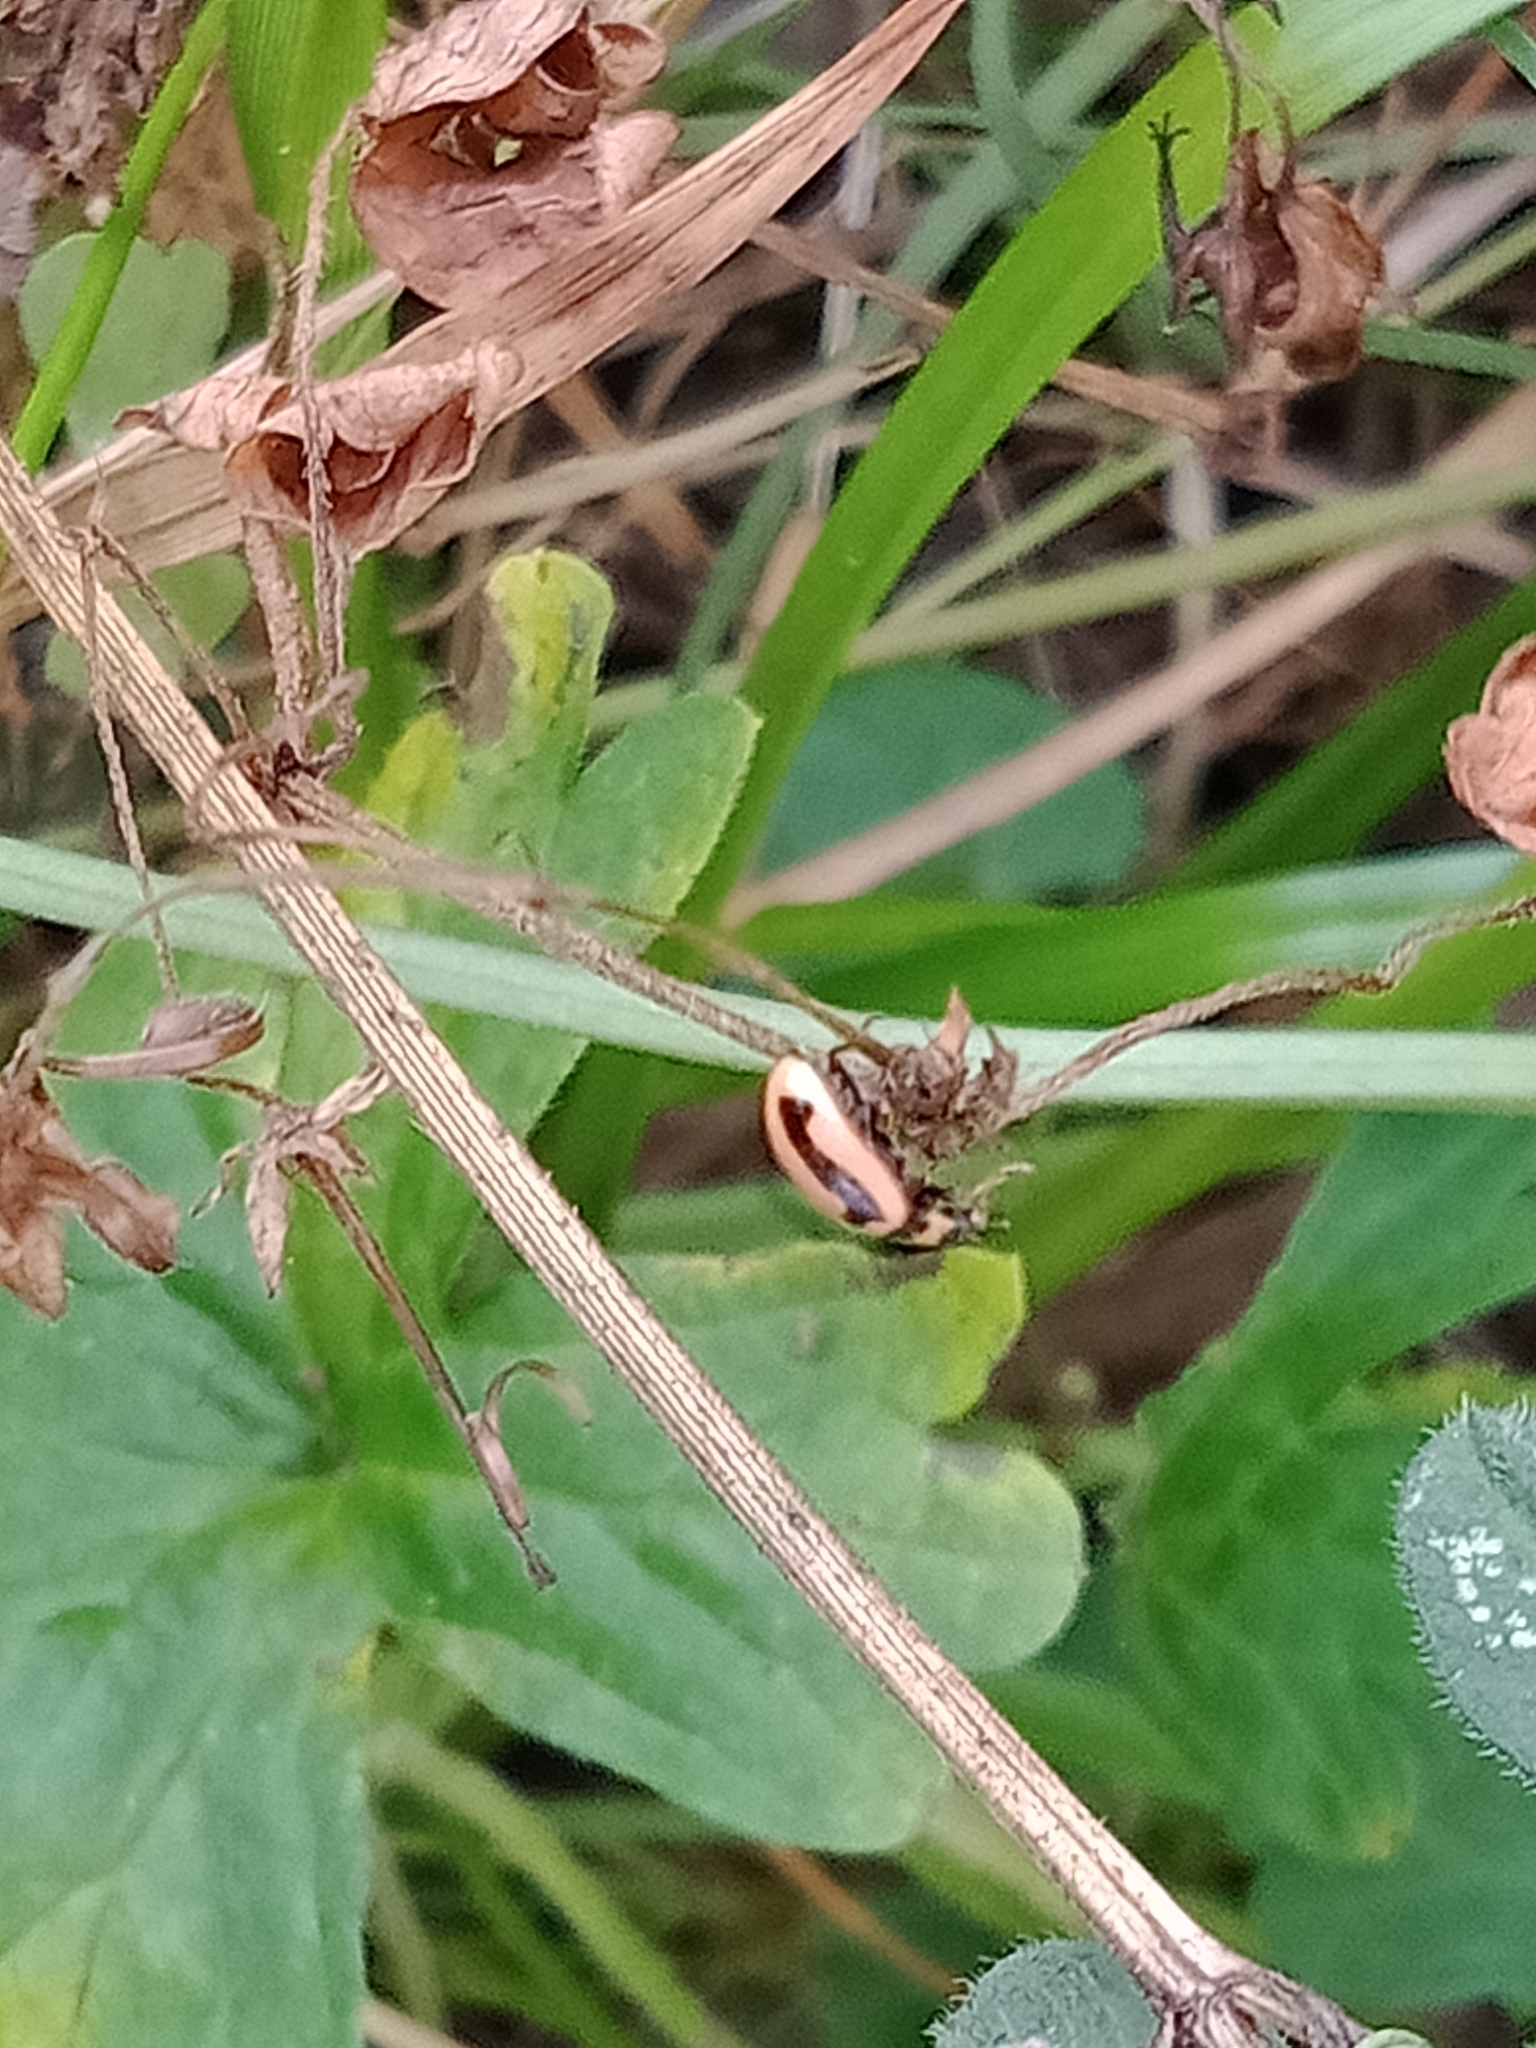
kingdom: Animalia
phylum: Arthropoda
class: Insecta
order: Coleoptera
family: Coccinellidae
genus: Micraspis
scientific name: Micraspis frenata
